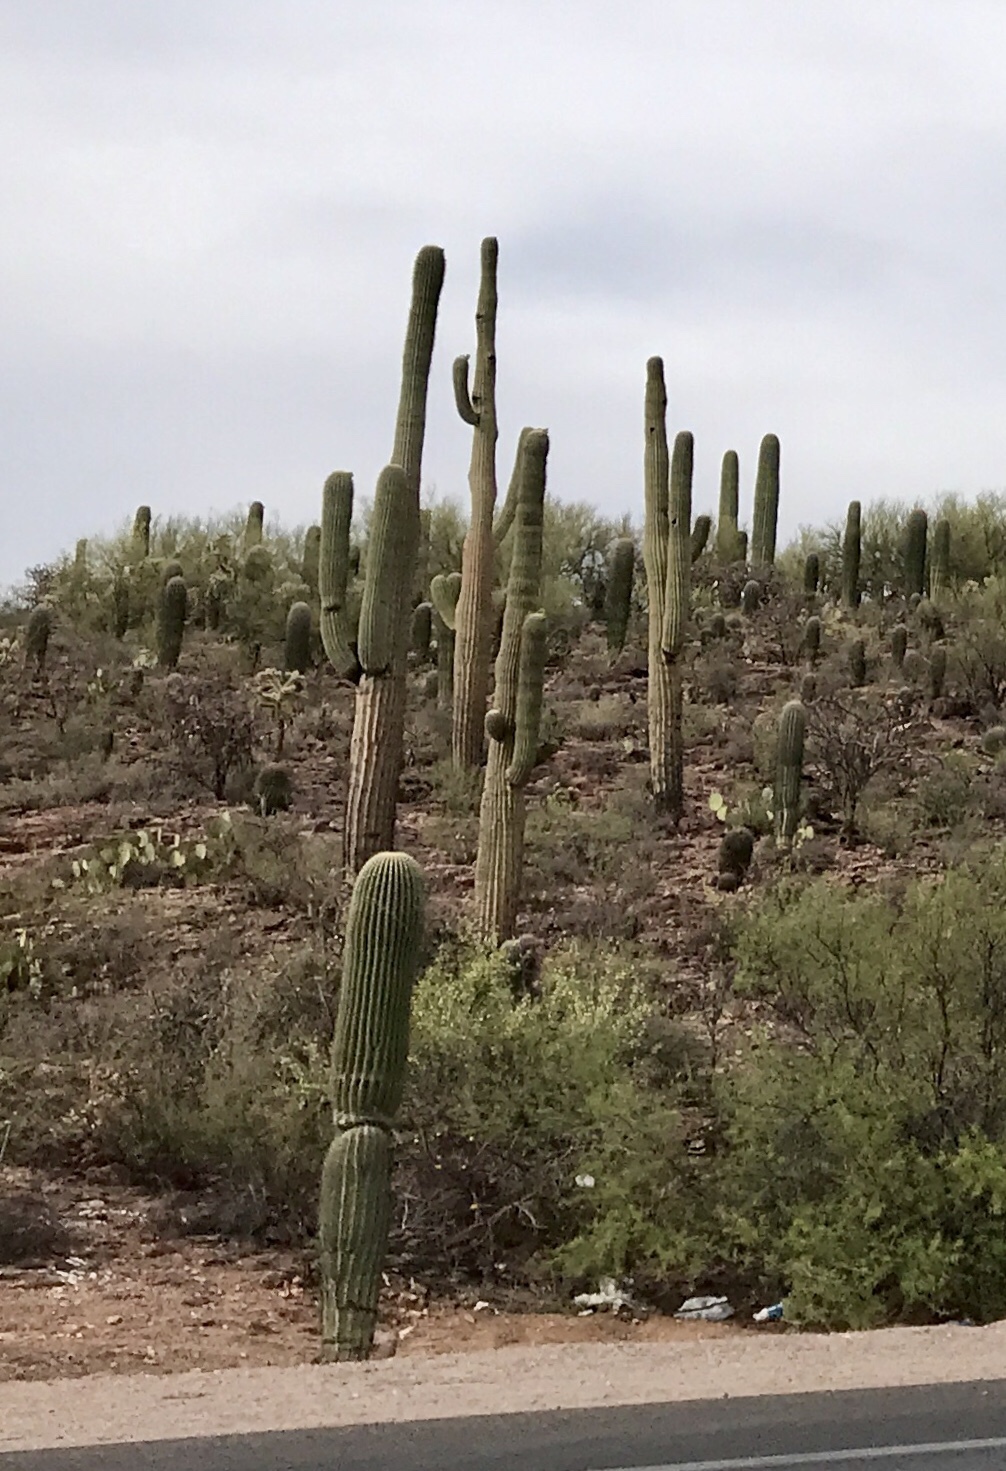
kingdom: Plantae
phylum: Tracheophyta
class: Magnoliopsida
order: Caryophyllales
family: Cactaceae
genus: Carnegiea
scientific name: Carnegiea gigantea
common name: Saguaro
